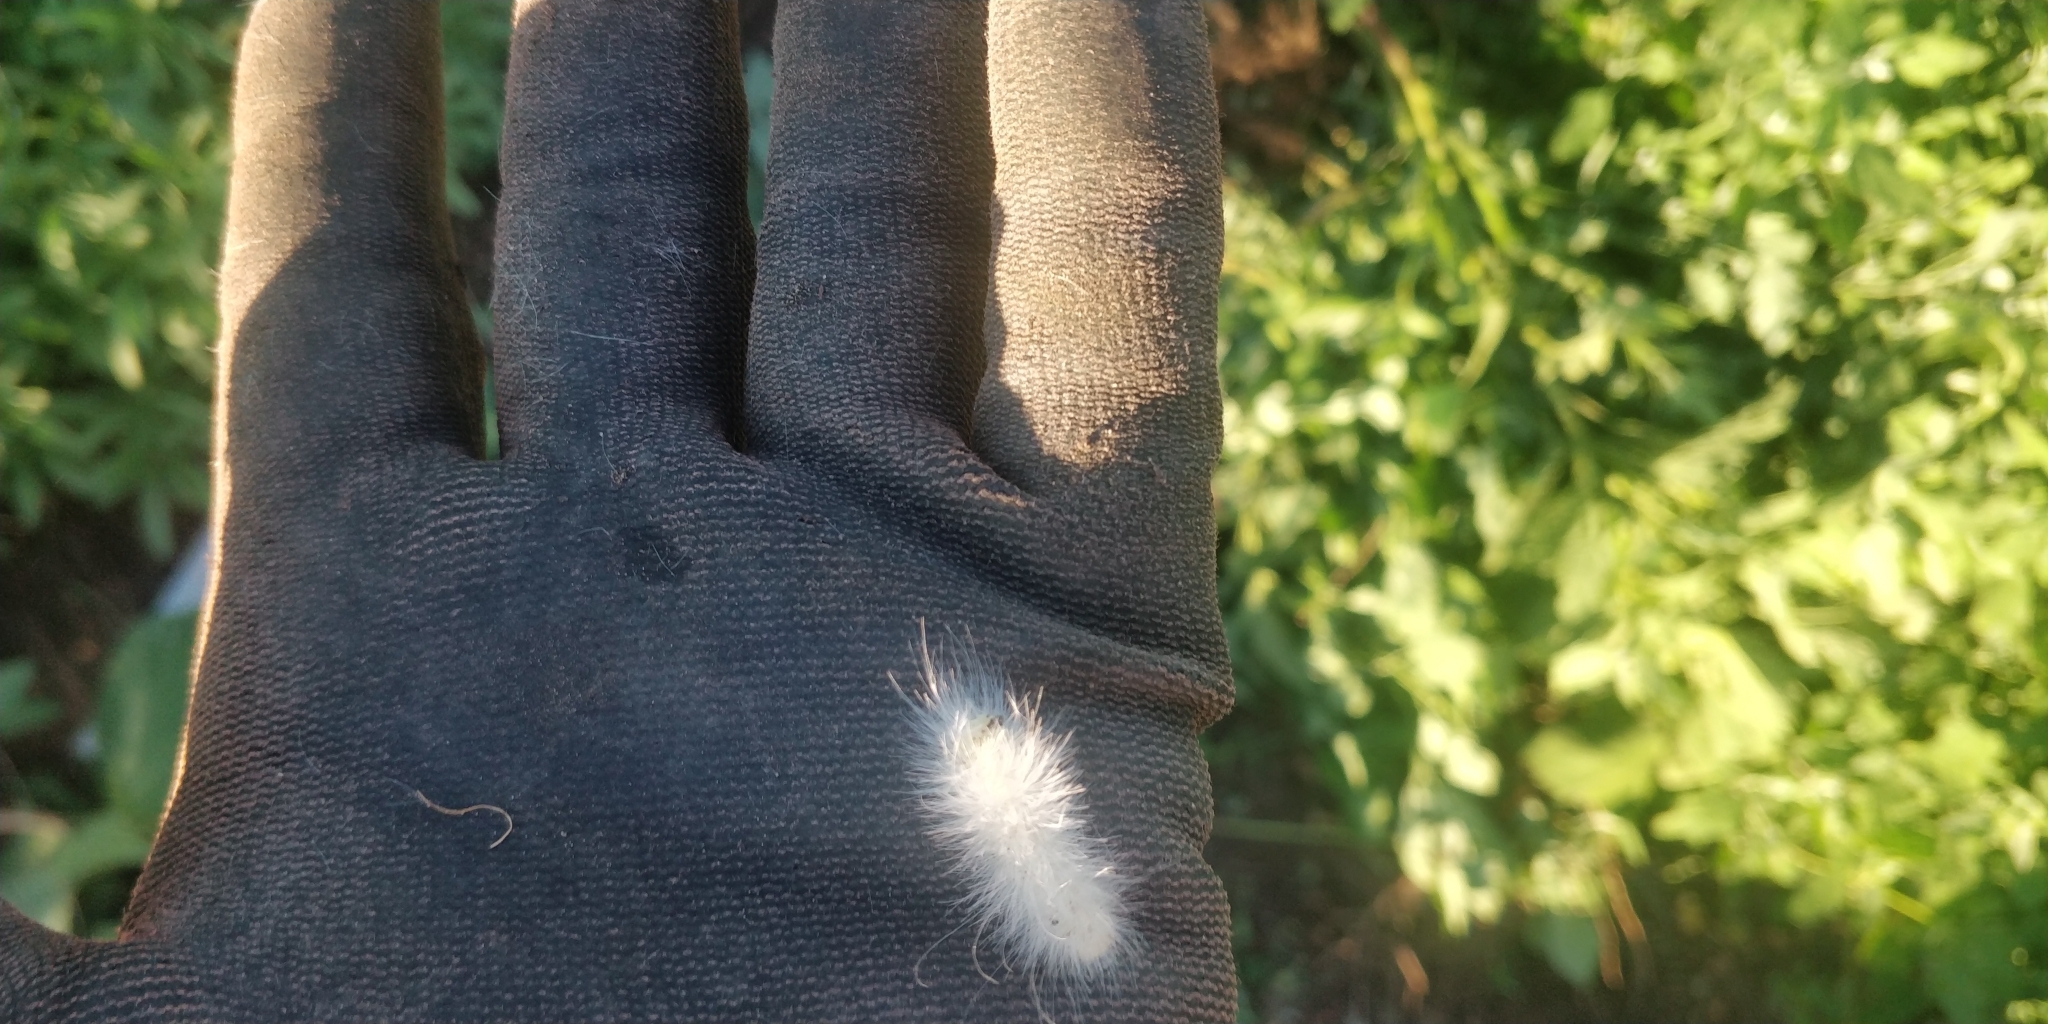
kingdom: Animalia
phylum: Arthropoda
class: Insecta
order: Lepidoptera
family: Erebidae
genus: Spilosoma
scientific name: Spilosoma virginica
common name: Virginia tiger moth
